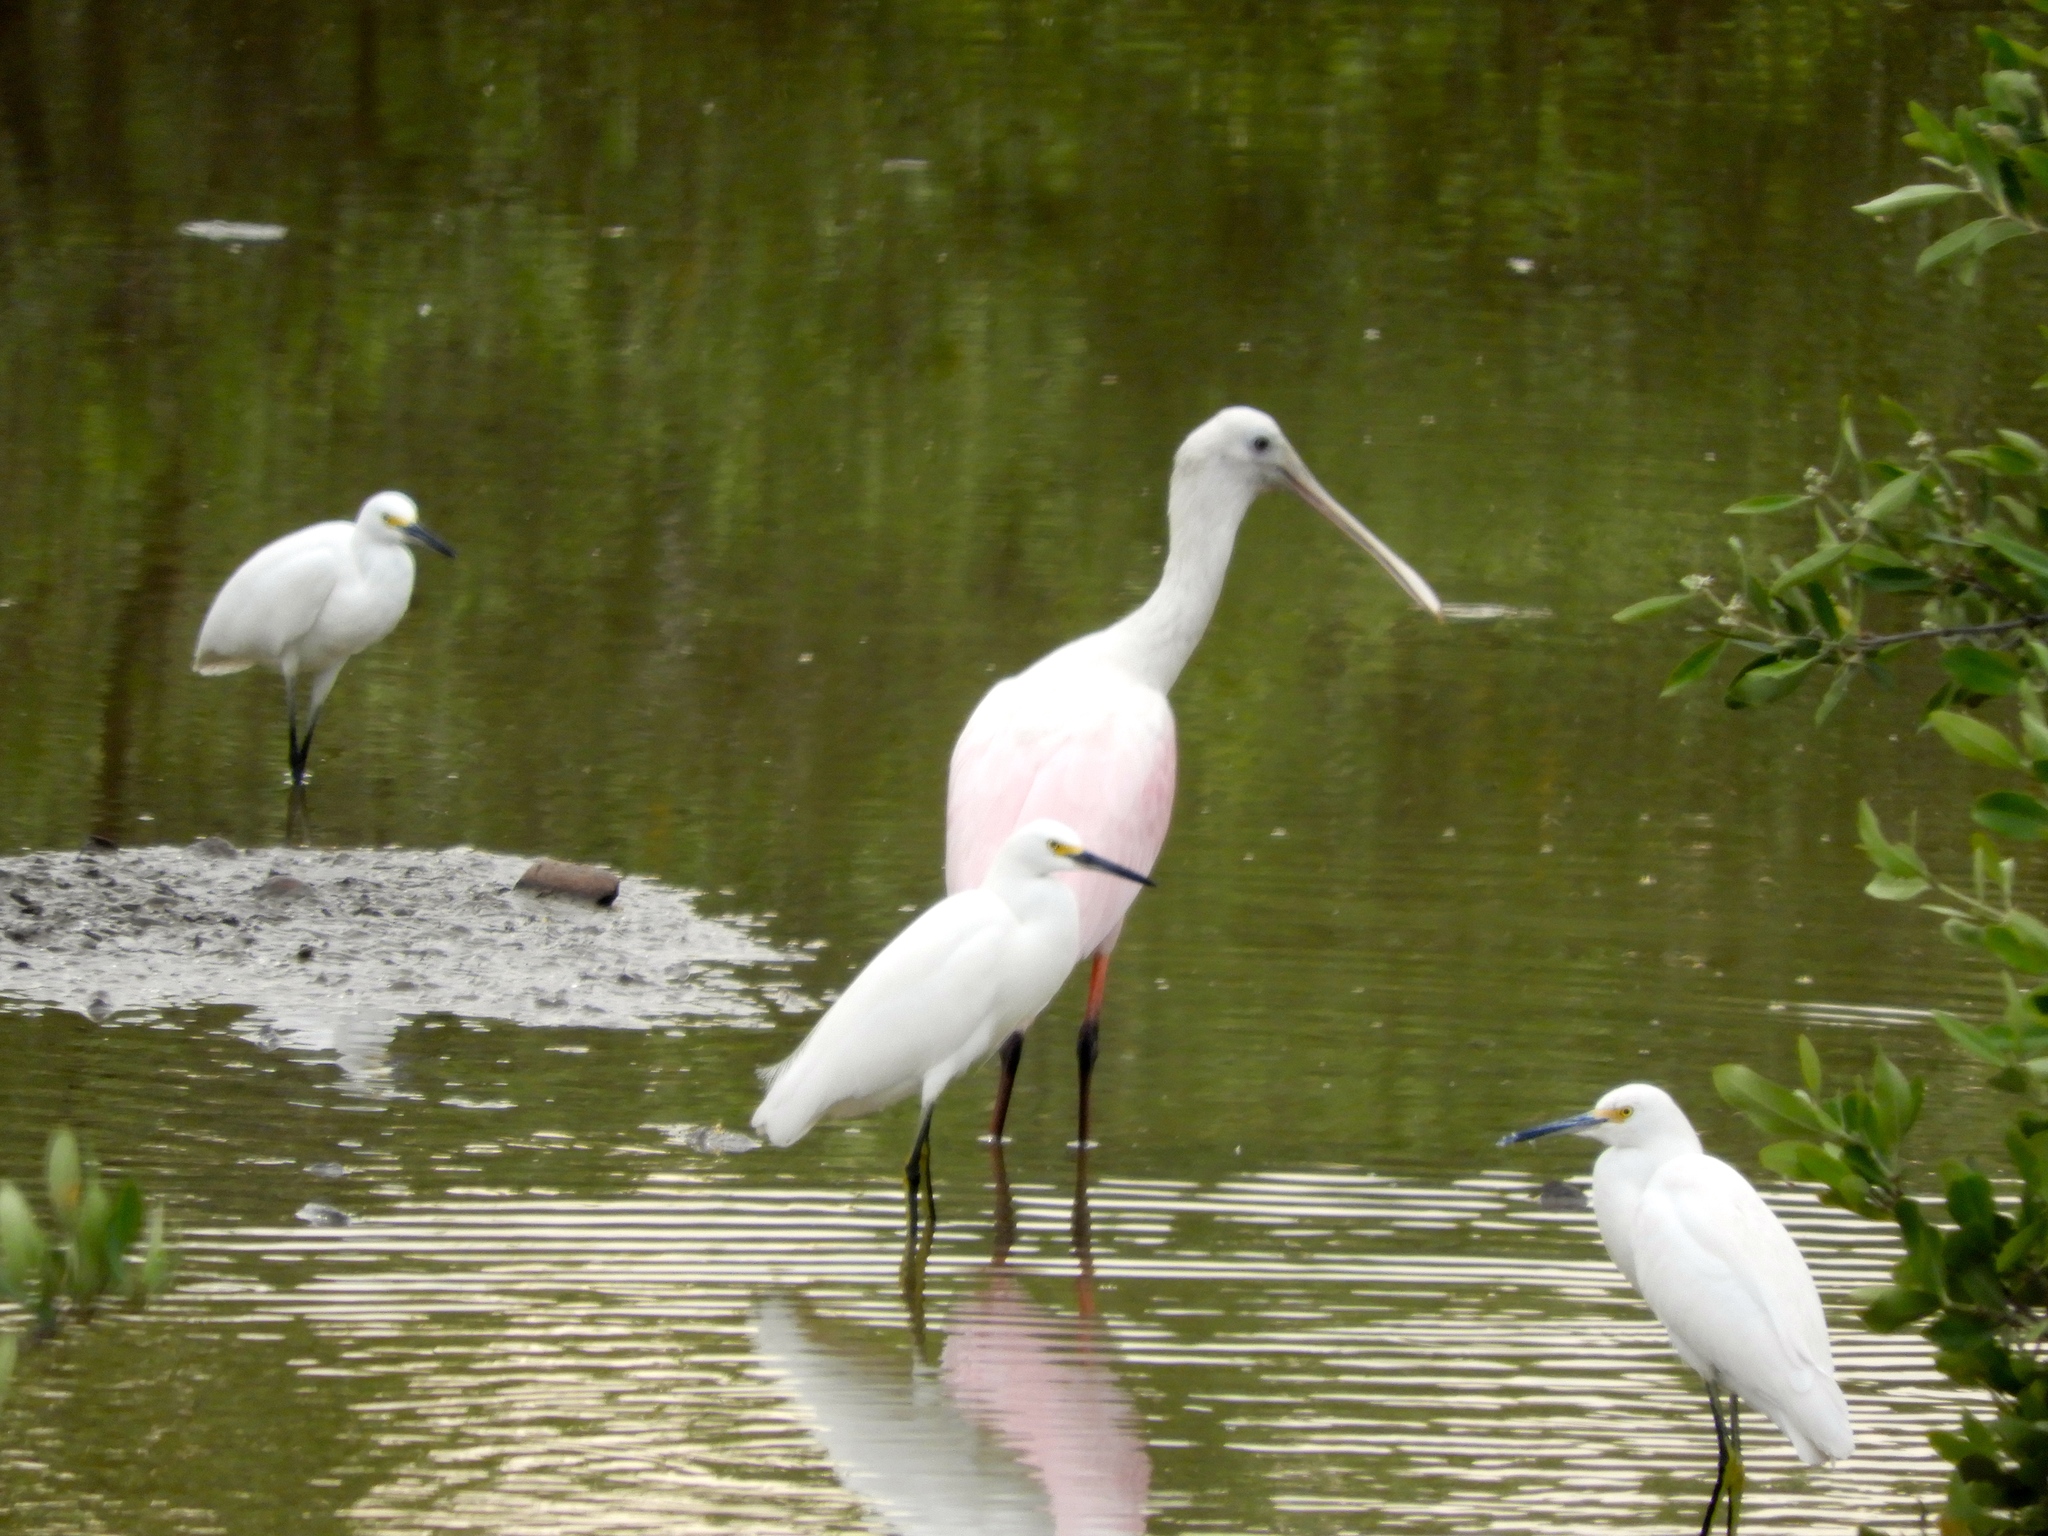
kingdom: Animalia
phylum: Chordata
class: Aves
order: Pelecaniformes
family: Ardeidae
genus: Egretta
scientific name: Egretta thula
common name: Snowy egret
